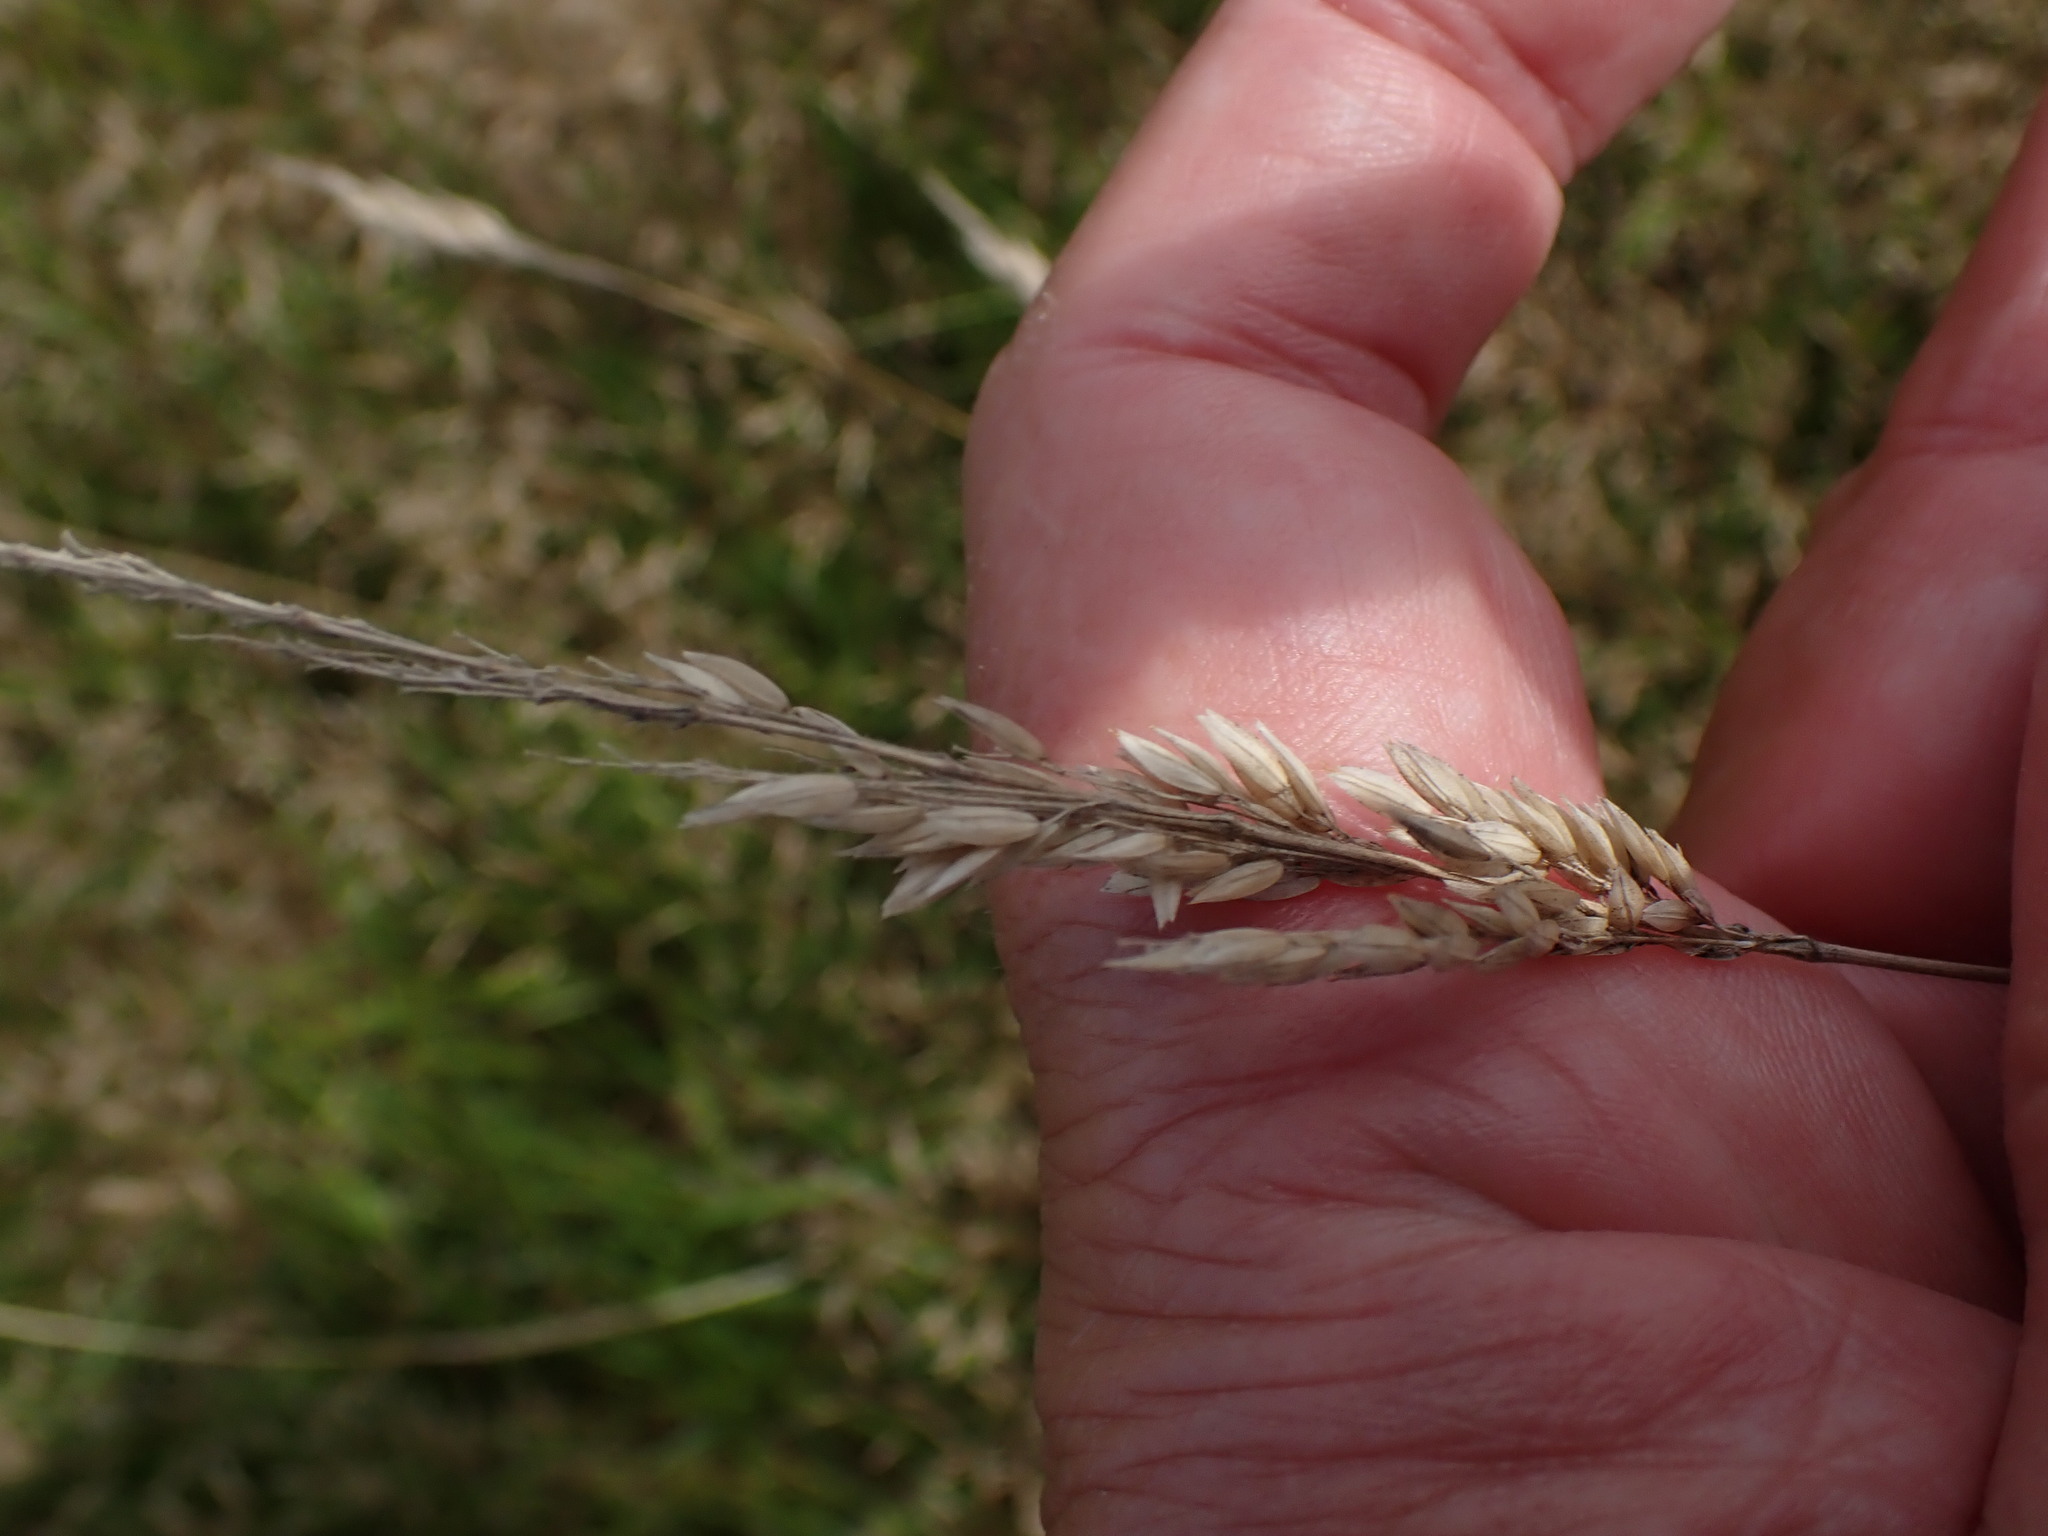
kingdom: Plantae
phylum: Tracheophyta
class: Liliopsida
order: Poales
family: Poaceae
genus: Holcus
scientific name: Holcus lanatus
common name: Yorkshire-fog
